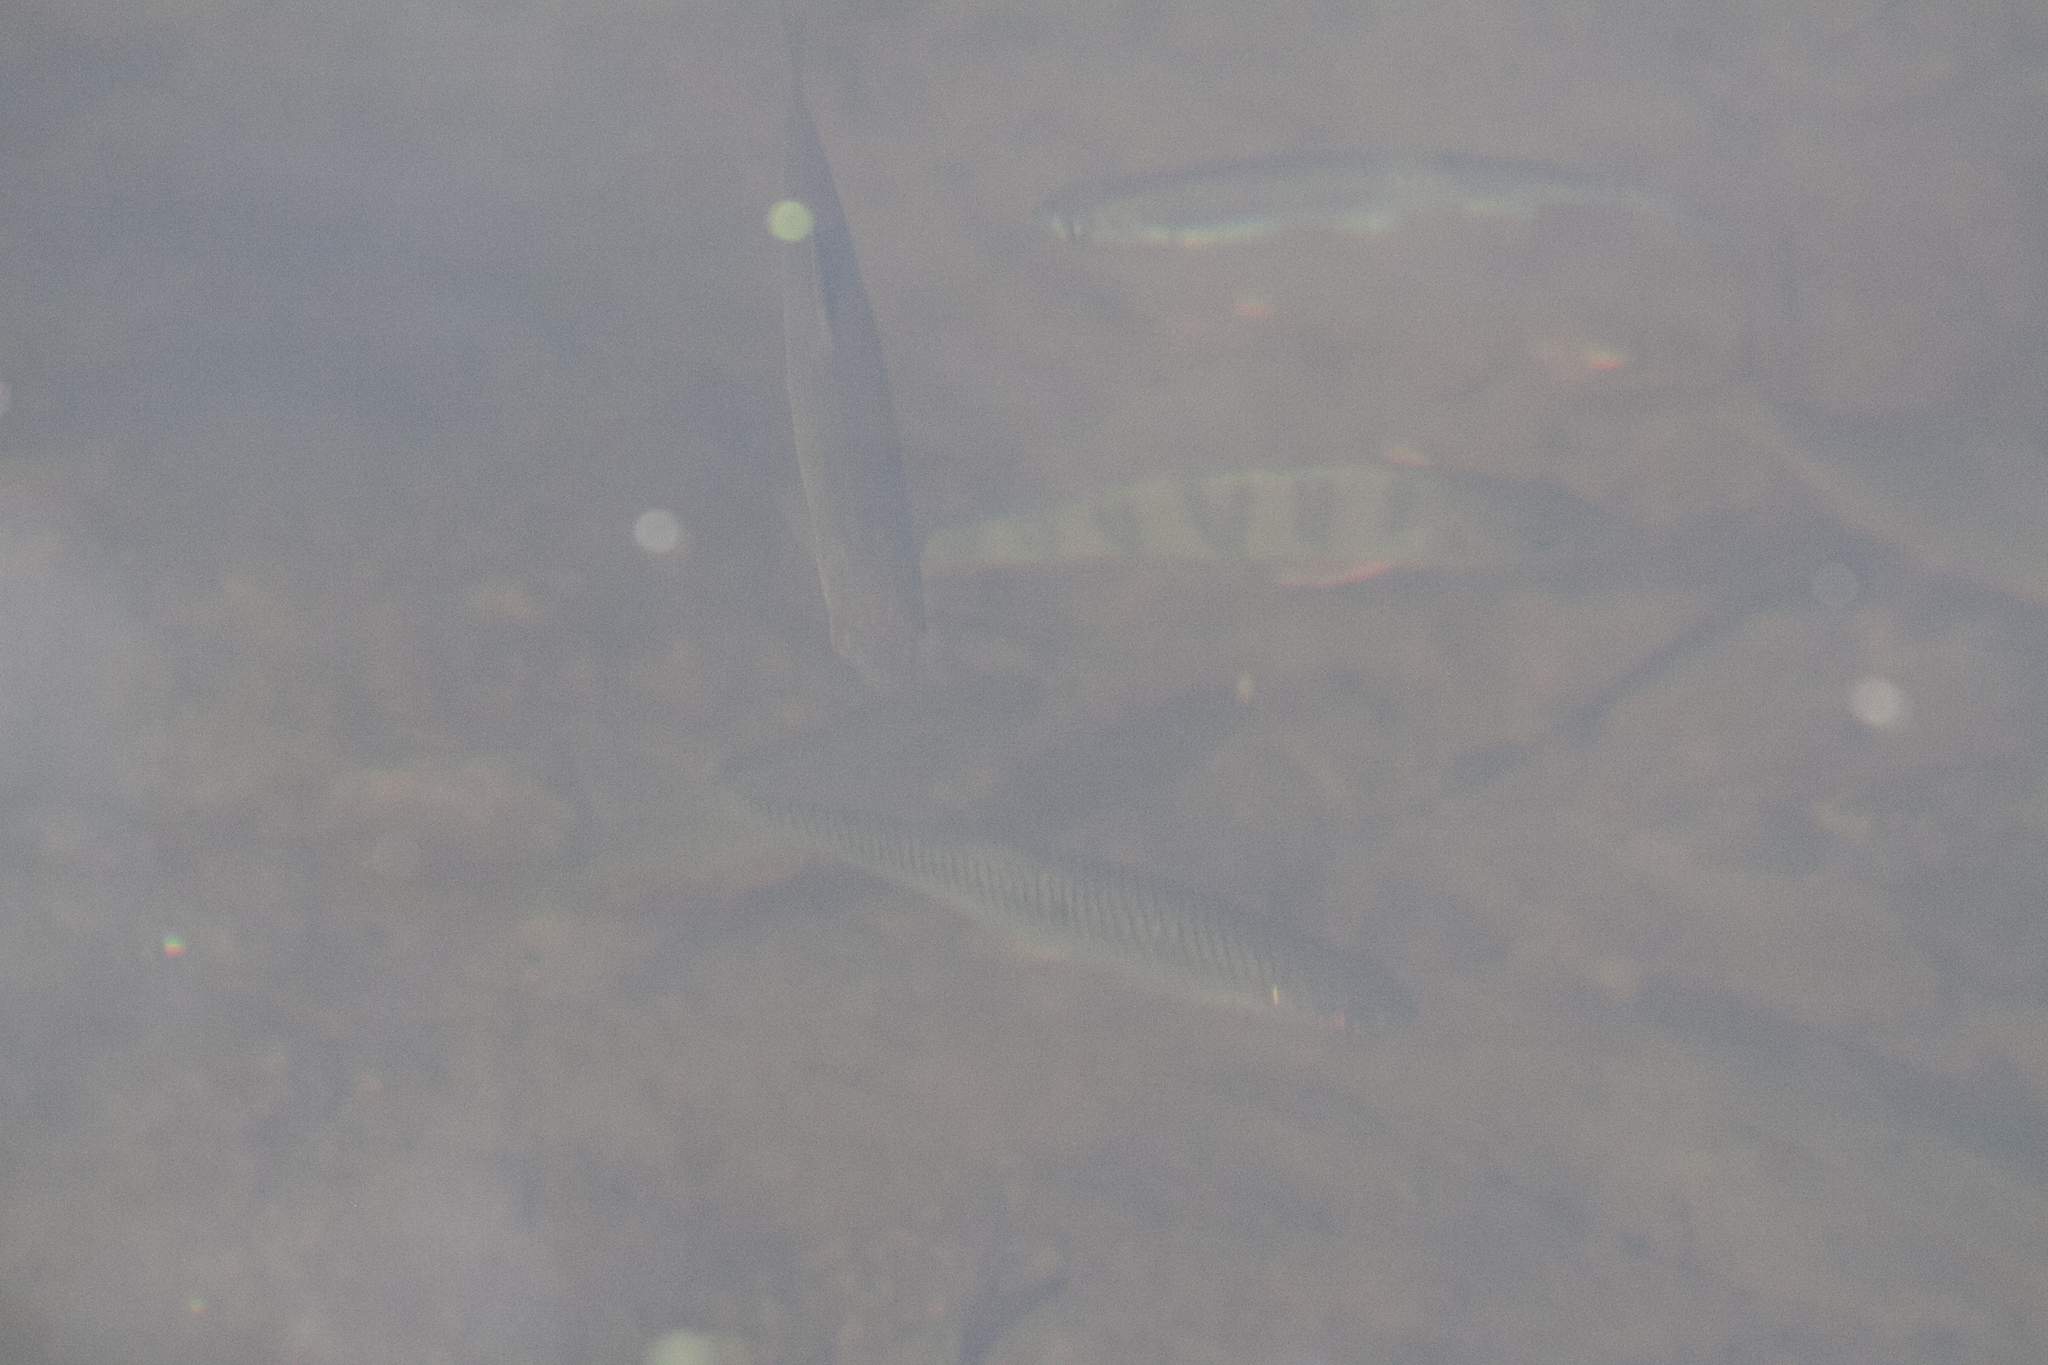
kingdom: Animalia
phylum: Chordata
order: Perciformes
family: Percidae
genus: Perca
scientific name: Perca fluviatilis
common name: Perch
